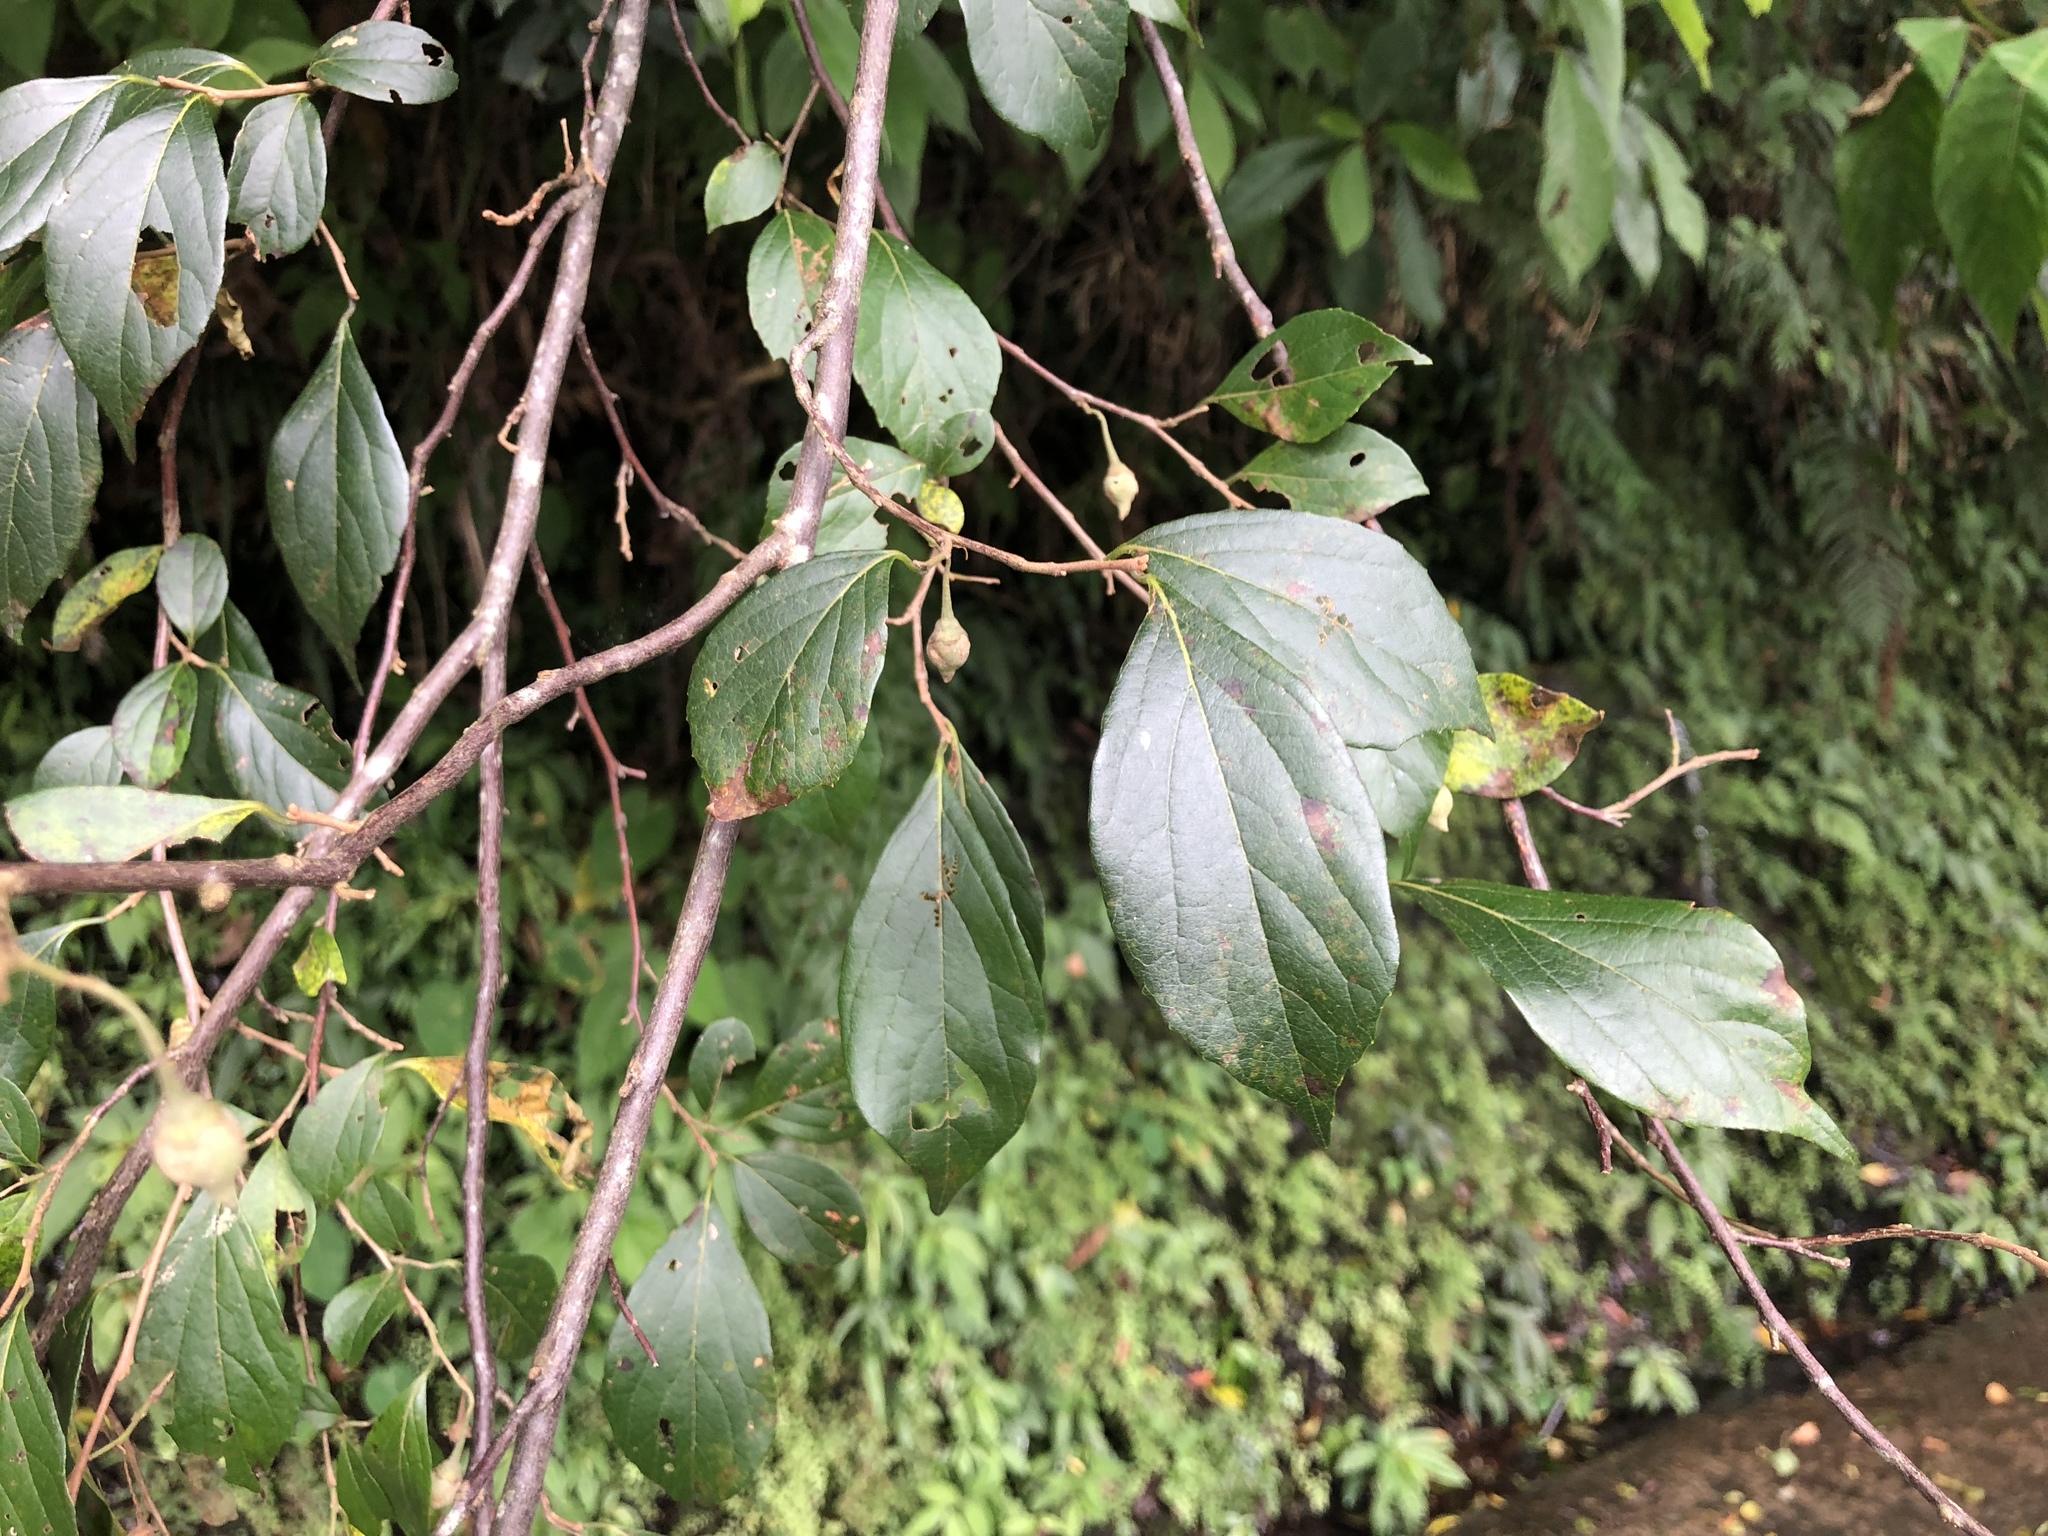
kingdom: Plantae
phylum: Tracheophyta
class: Magnoliopsida
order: Ericales
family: Styracaceae
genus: Styrax
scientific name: Styrax formosanus
